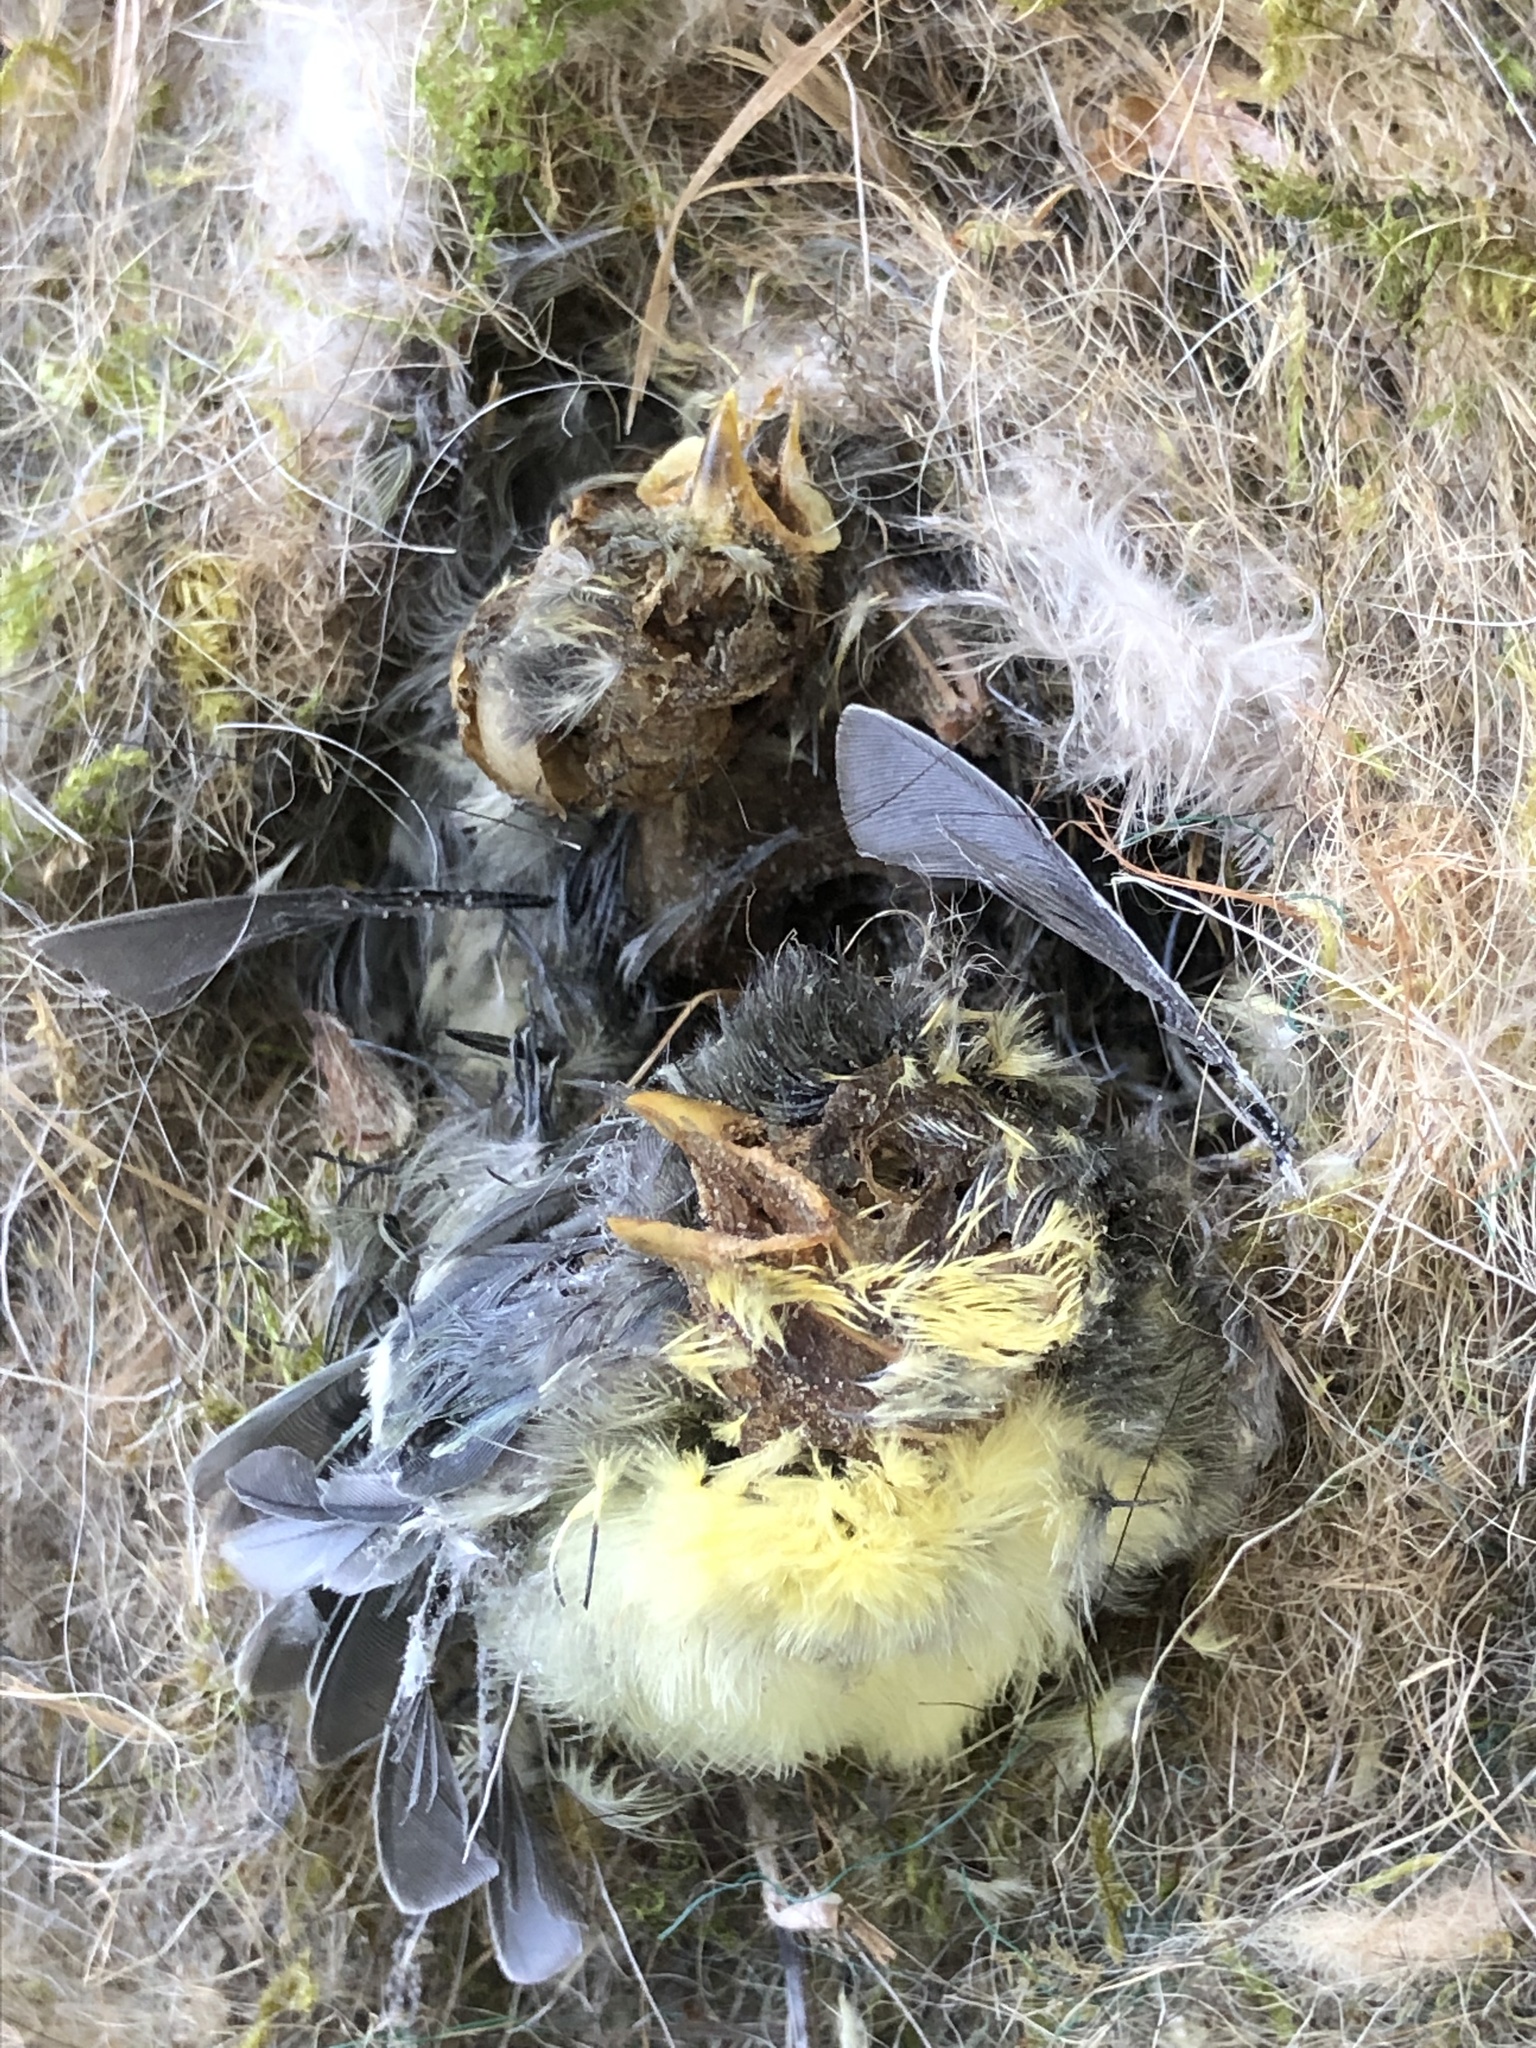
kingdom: Animalia
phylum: Chordata
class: Aves
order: Passeriformes
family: Paridae
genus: Parus
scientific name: Parus major
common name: Great tit
